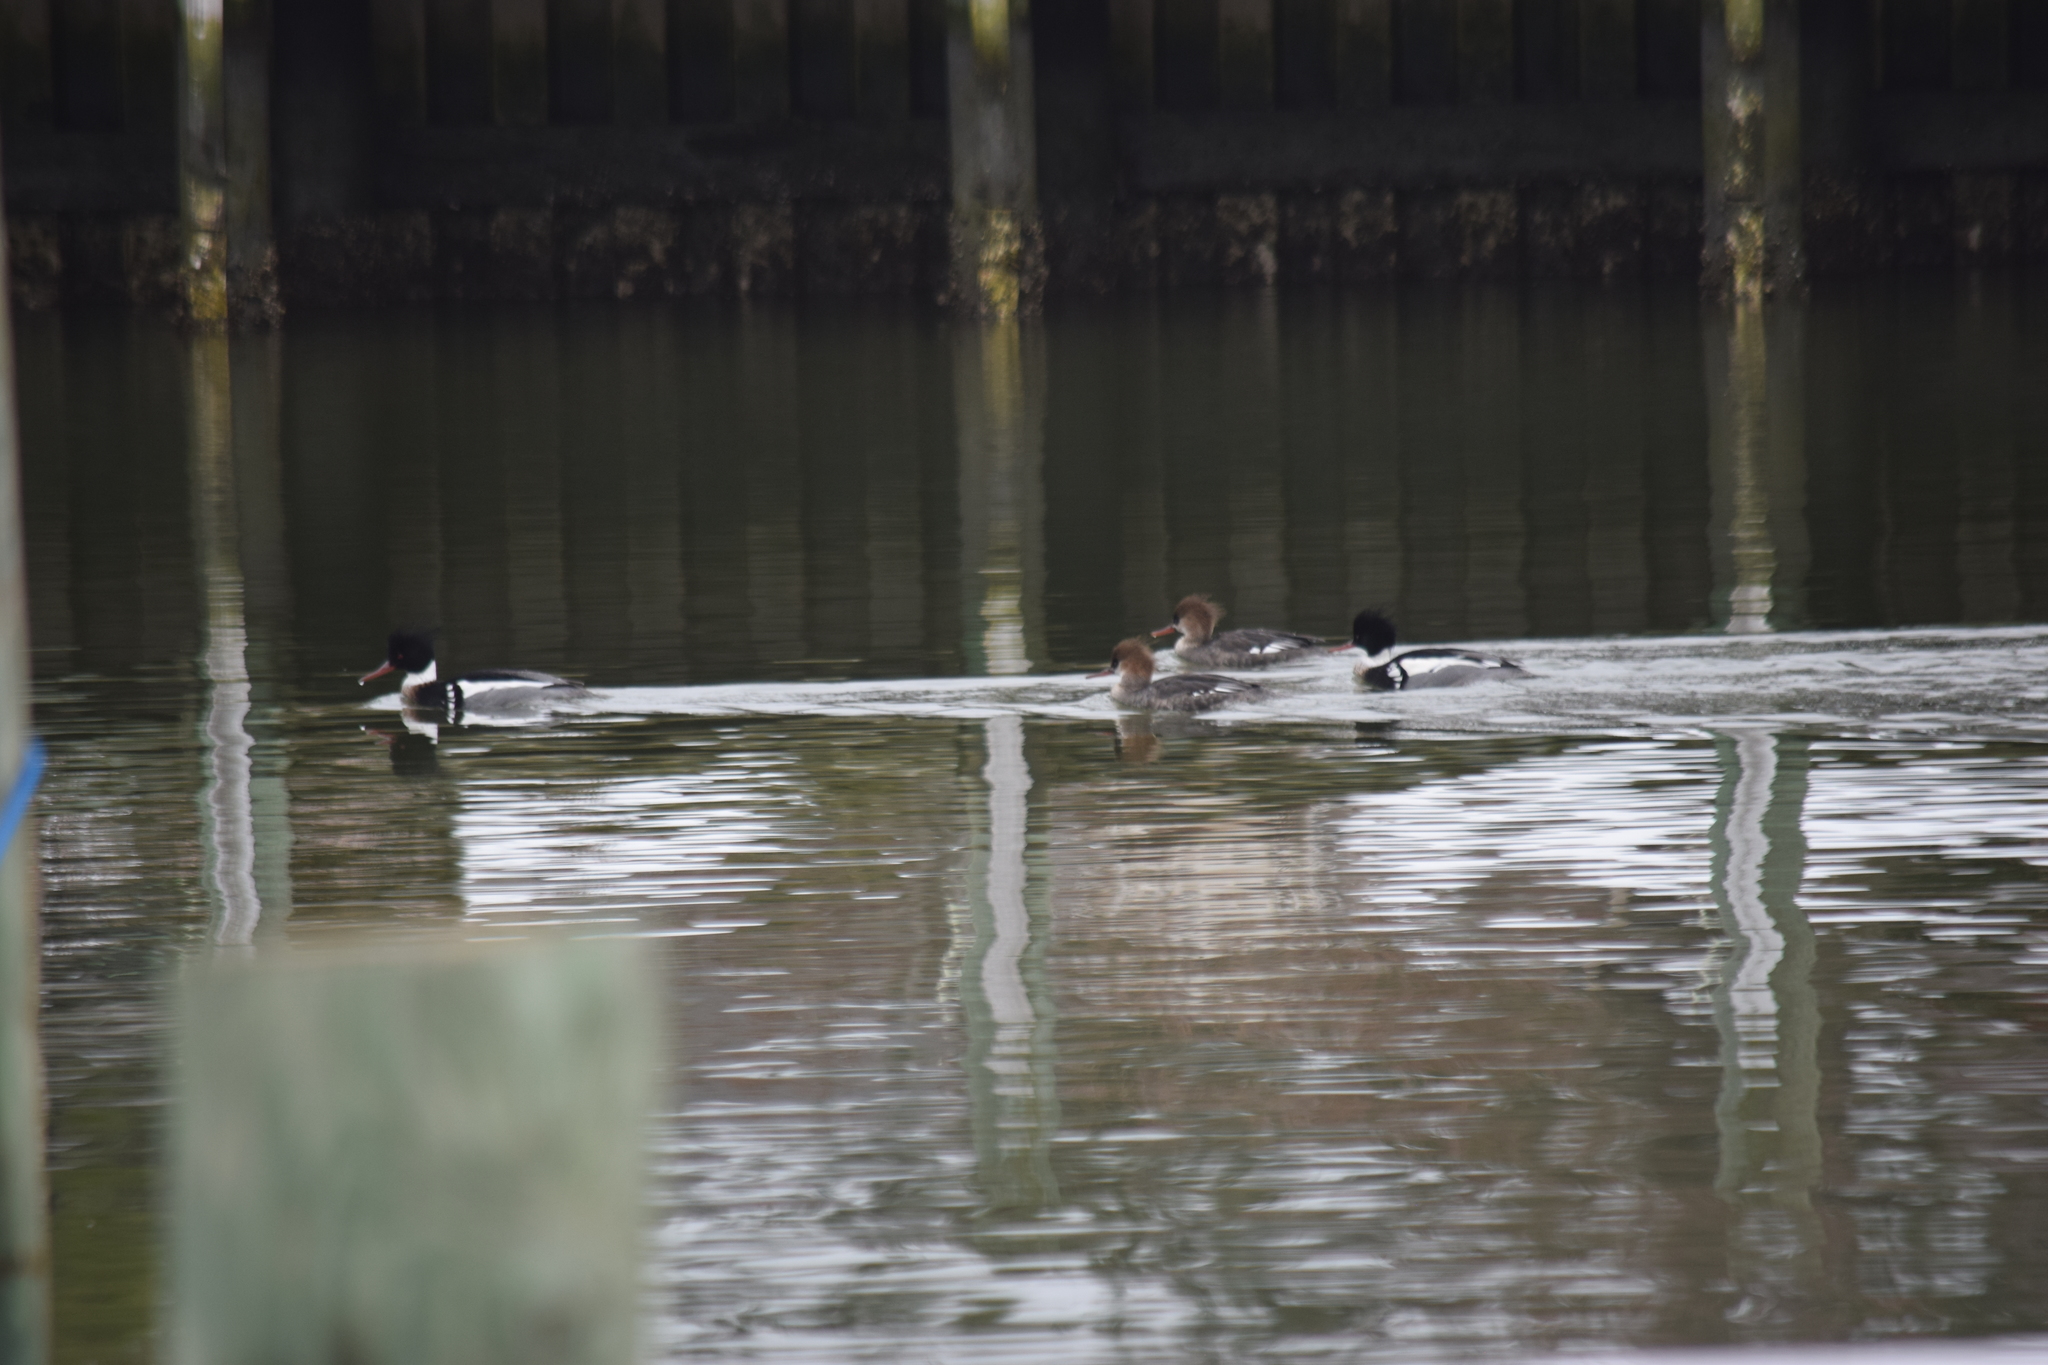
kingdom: Animalia
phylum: Chordata
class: Aves
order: Anseriformes
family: Anatidae
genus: Mergus
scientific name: Mergus serrator
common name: Red-breasted merganser
